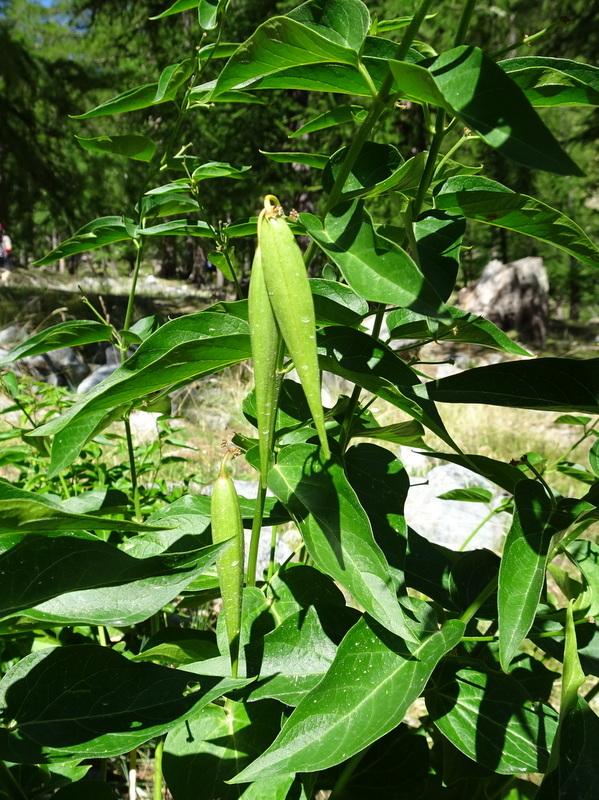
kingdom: Plantae
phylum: Tracheophyta
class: Magnoliopsida
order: Gentianales
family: Apocynaceae
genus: Vincetoxicum
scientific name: Vincetoxicum hirundinaria
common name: White swallowwort
